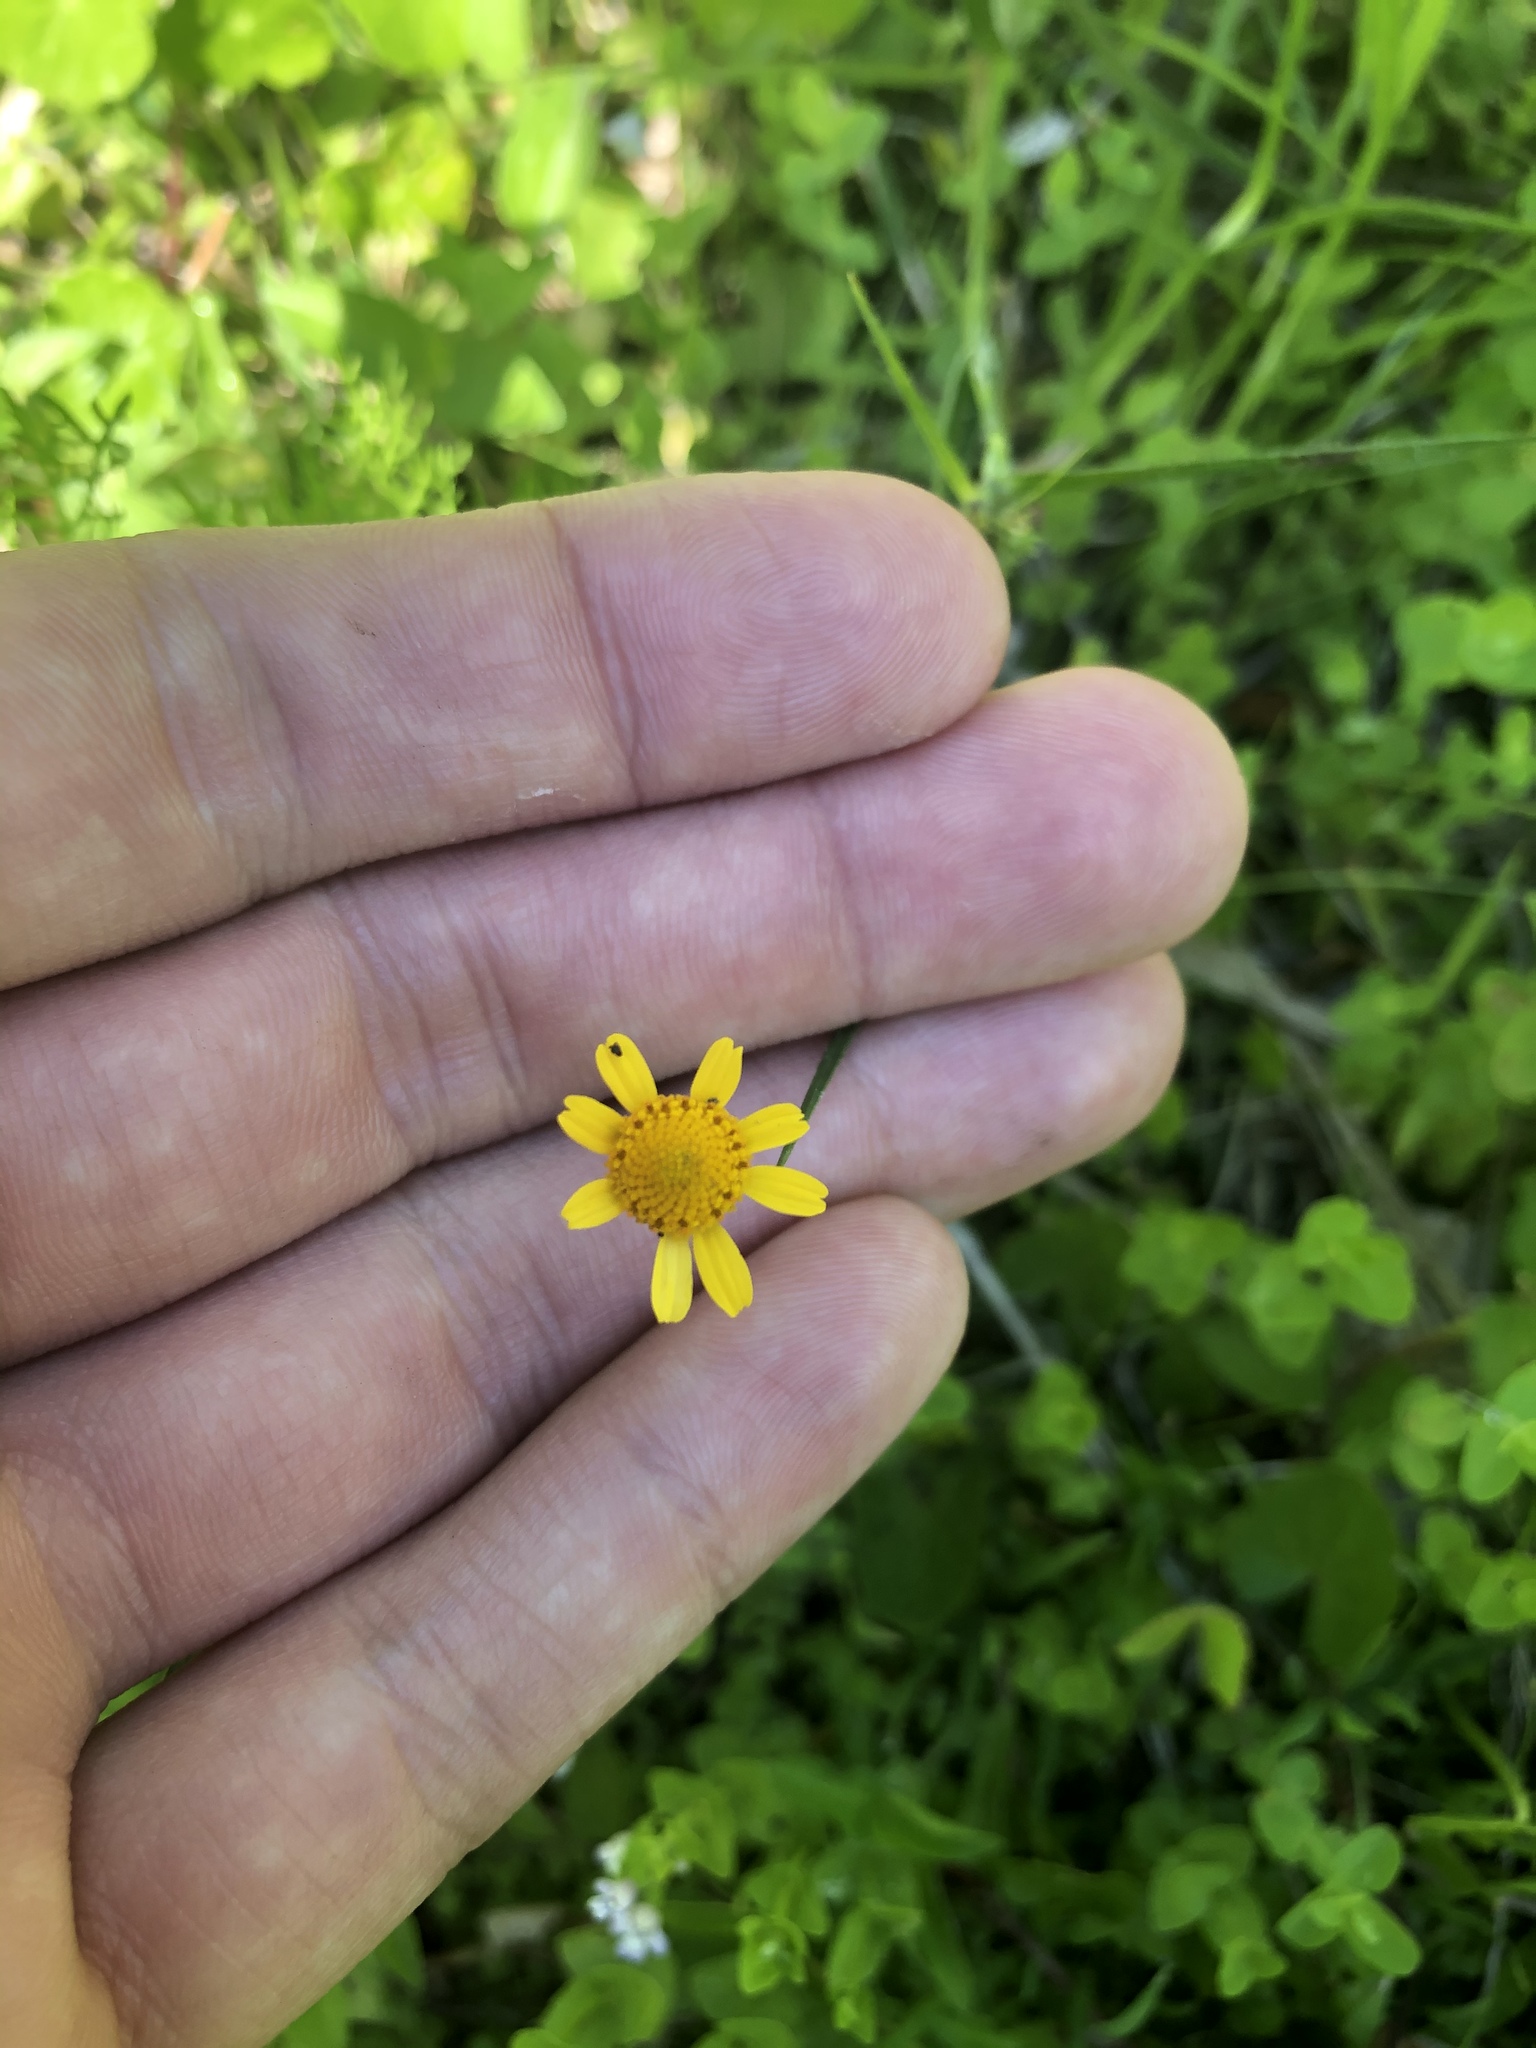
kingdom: Plantae
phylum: Tracheophyta
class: Magnoliopsida
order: Asterales
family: Asteraceae
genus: Acmella
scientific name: Acmella repens
